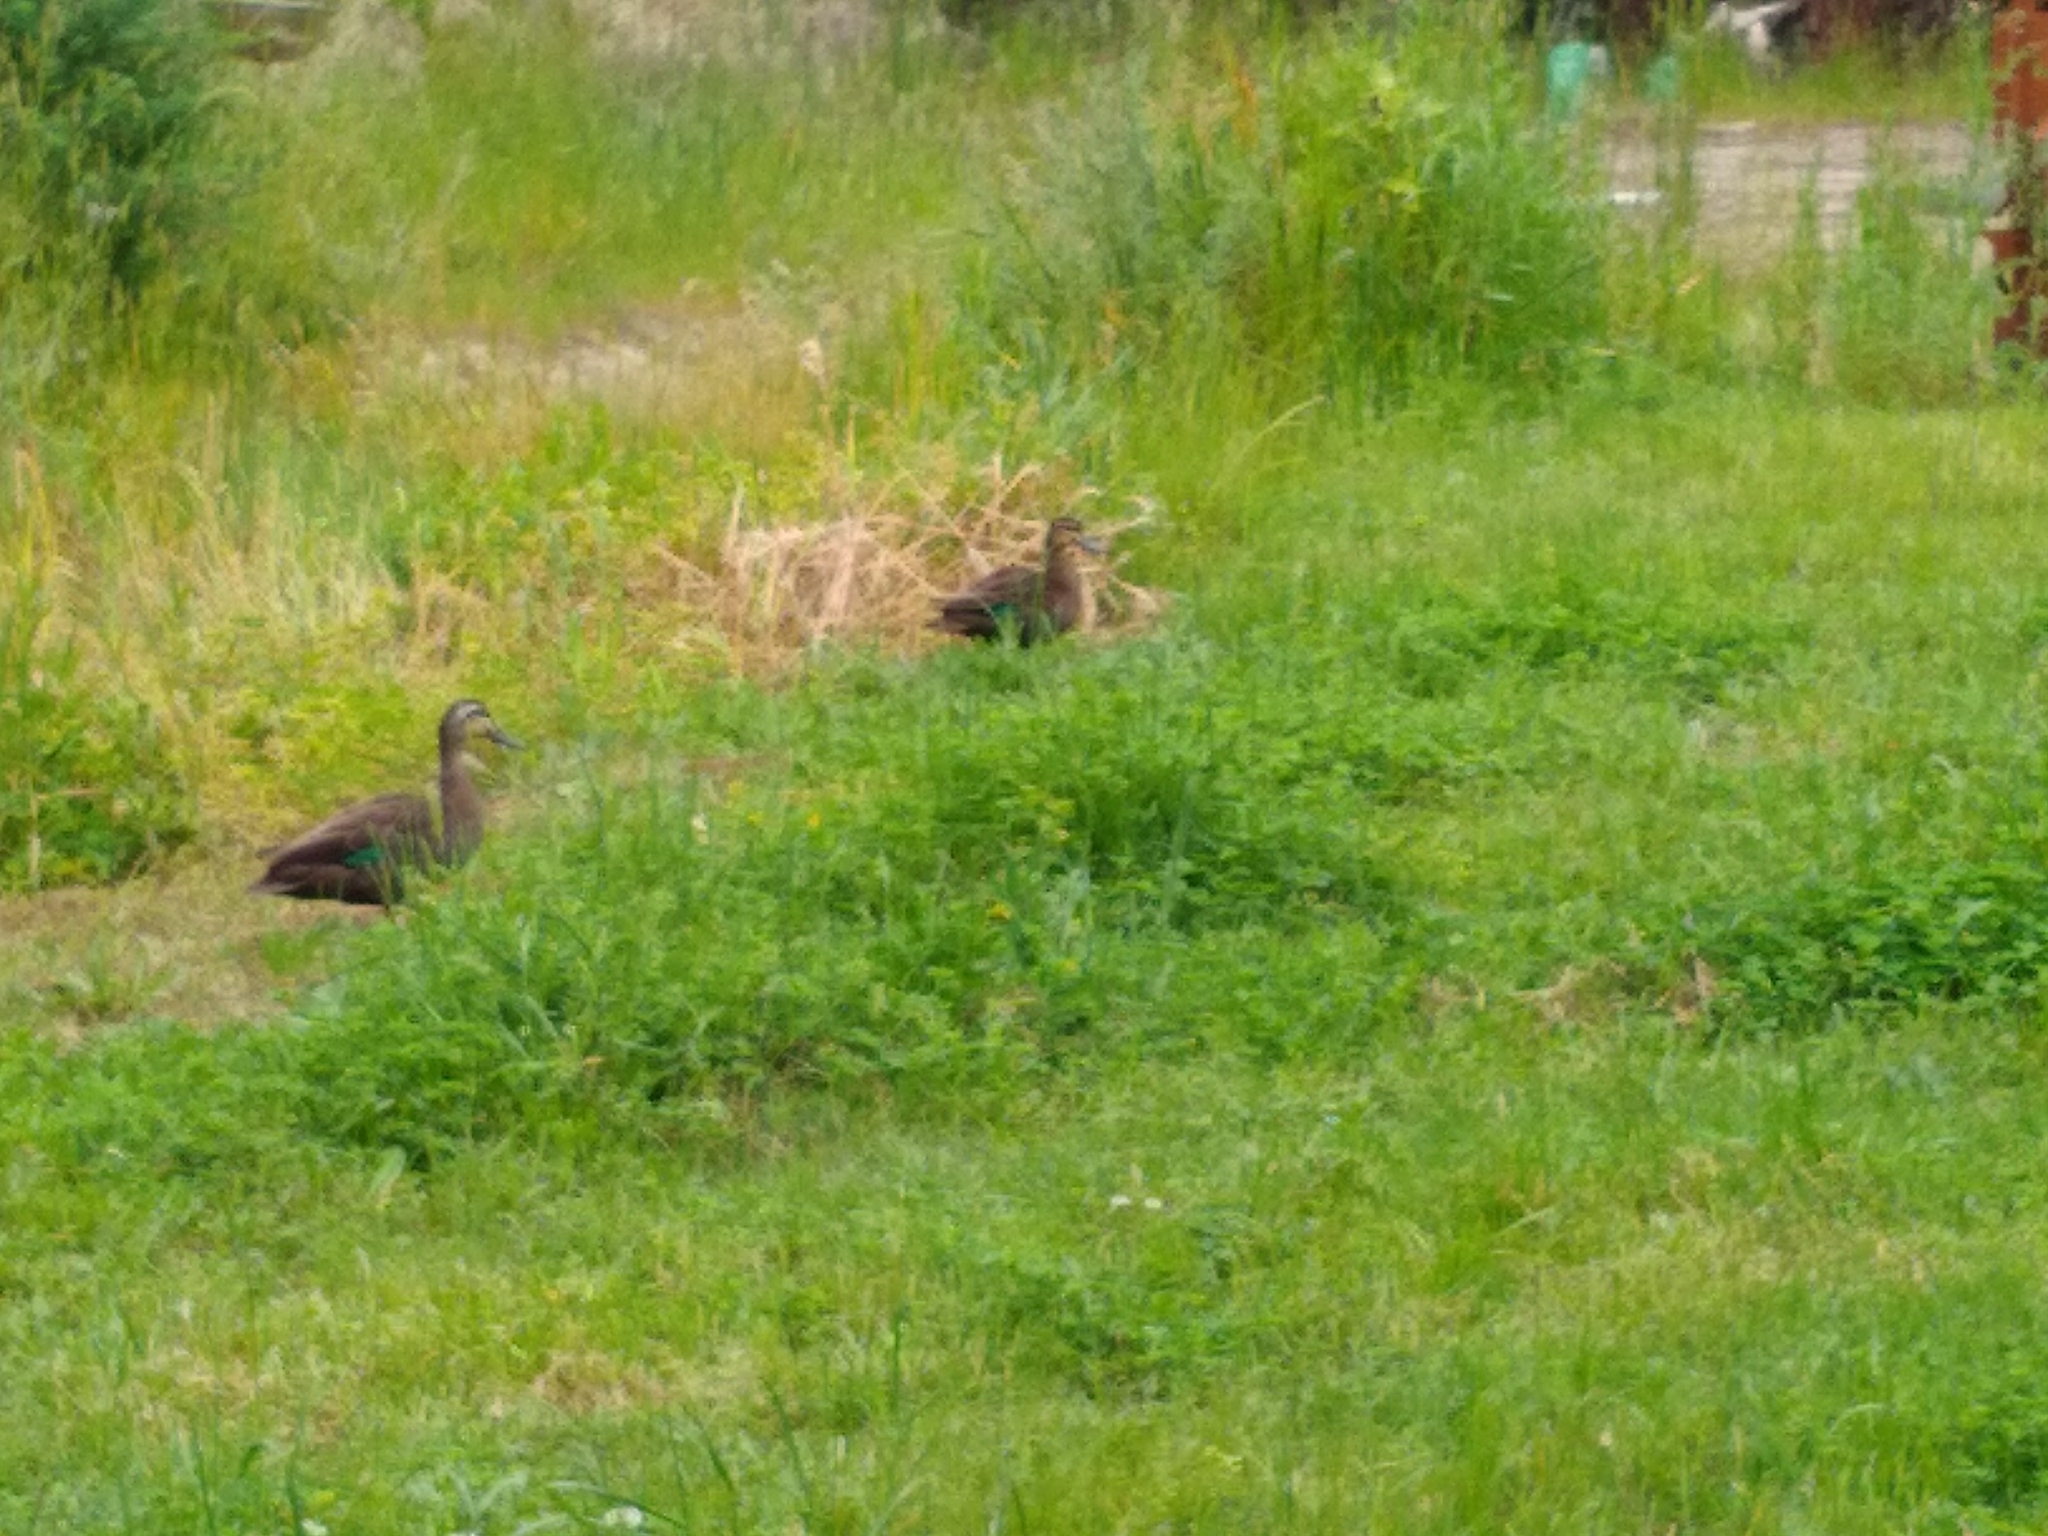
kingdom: Animalia
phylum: Chordata
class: Aves
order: Anseriformes
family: Anatidae
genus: Anas
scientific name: Anas superciliosa
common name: Pacific black duck
